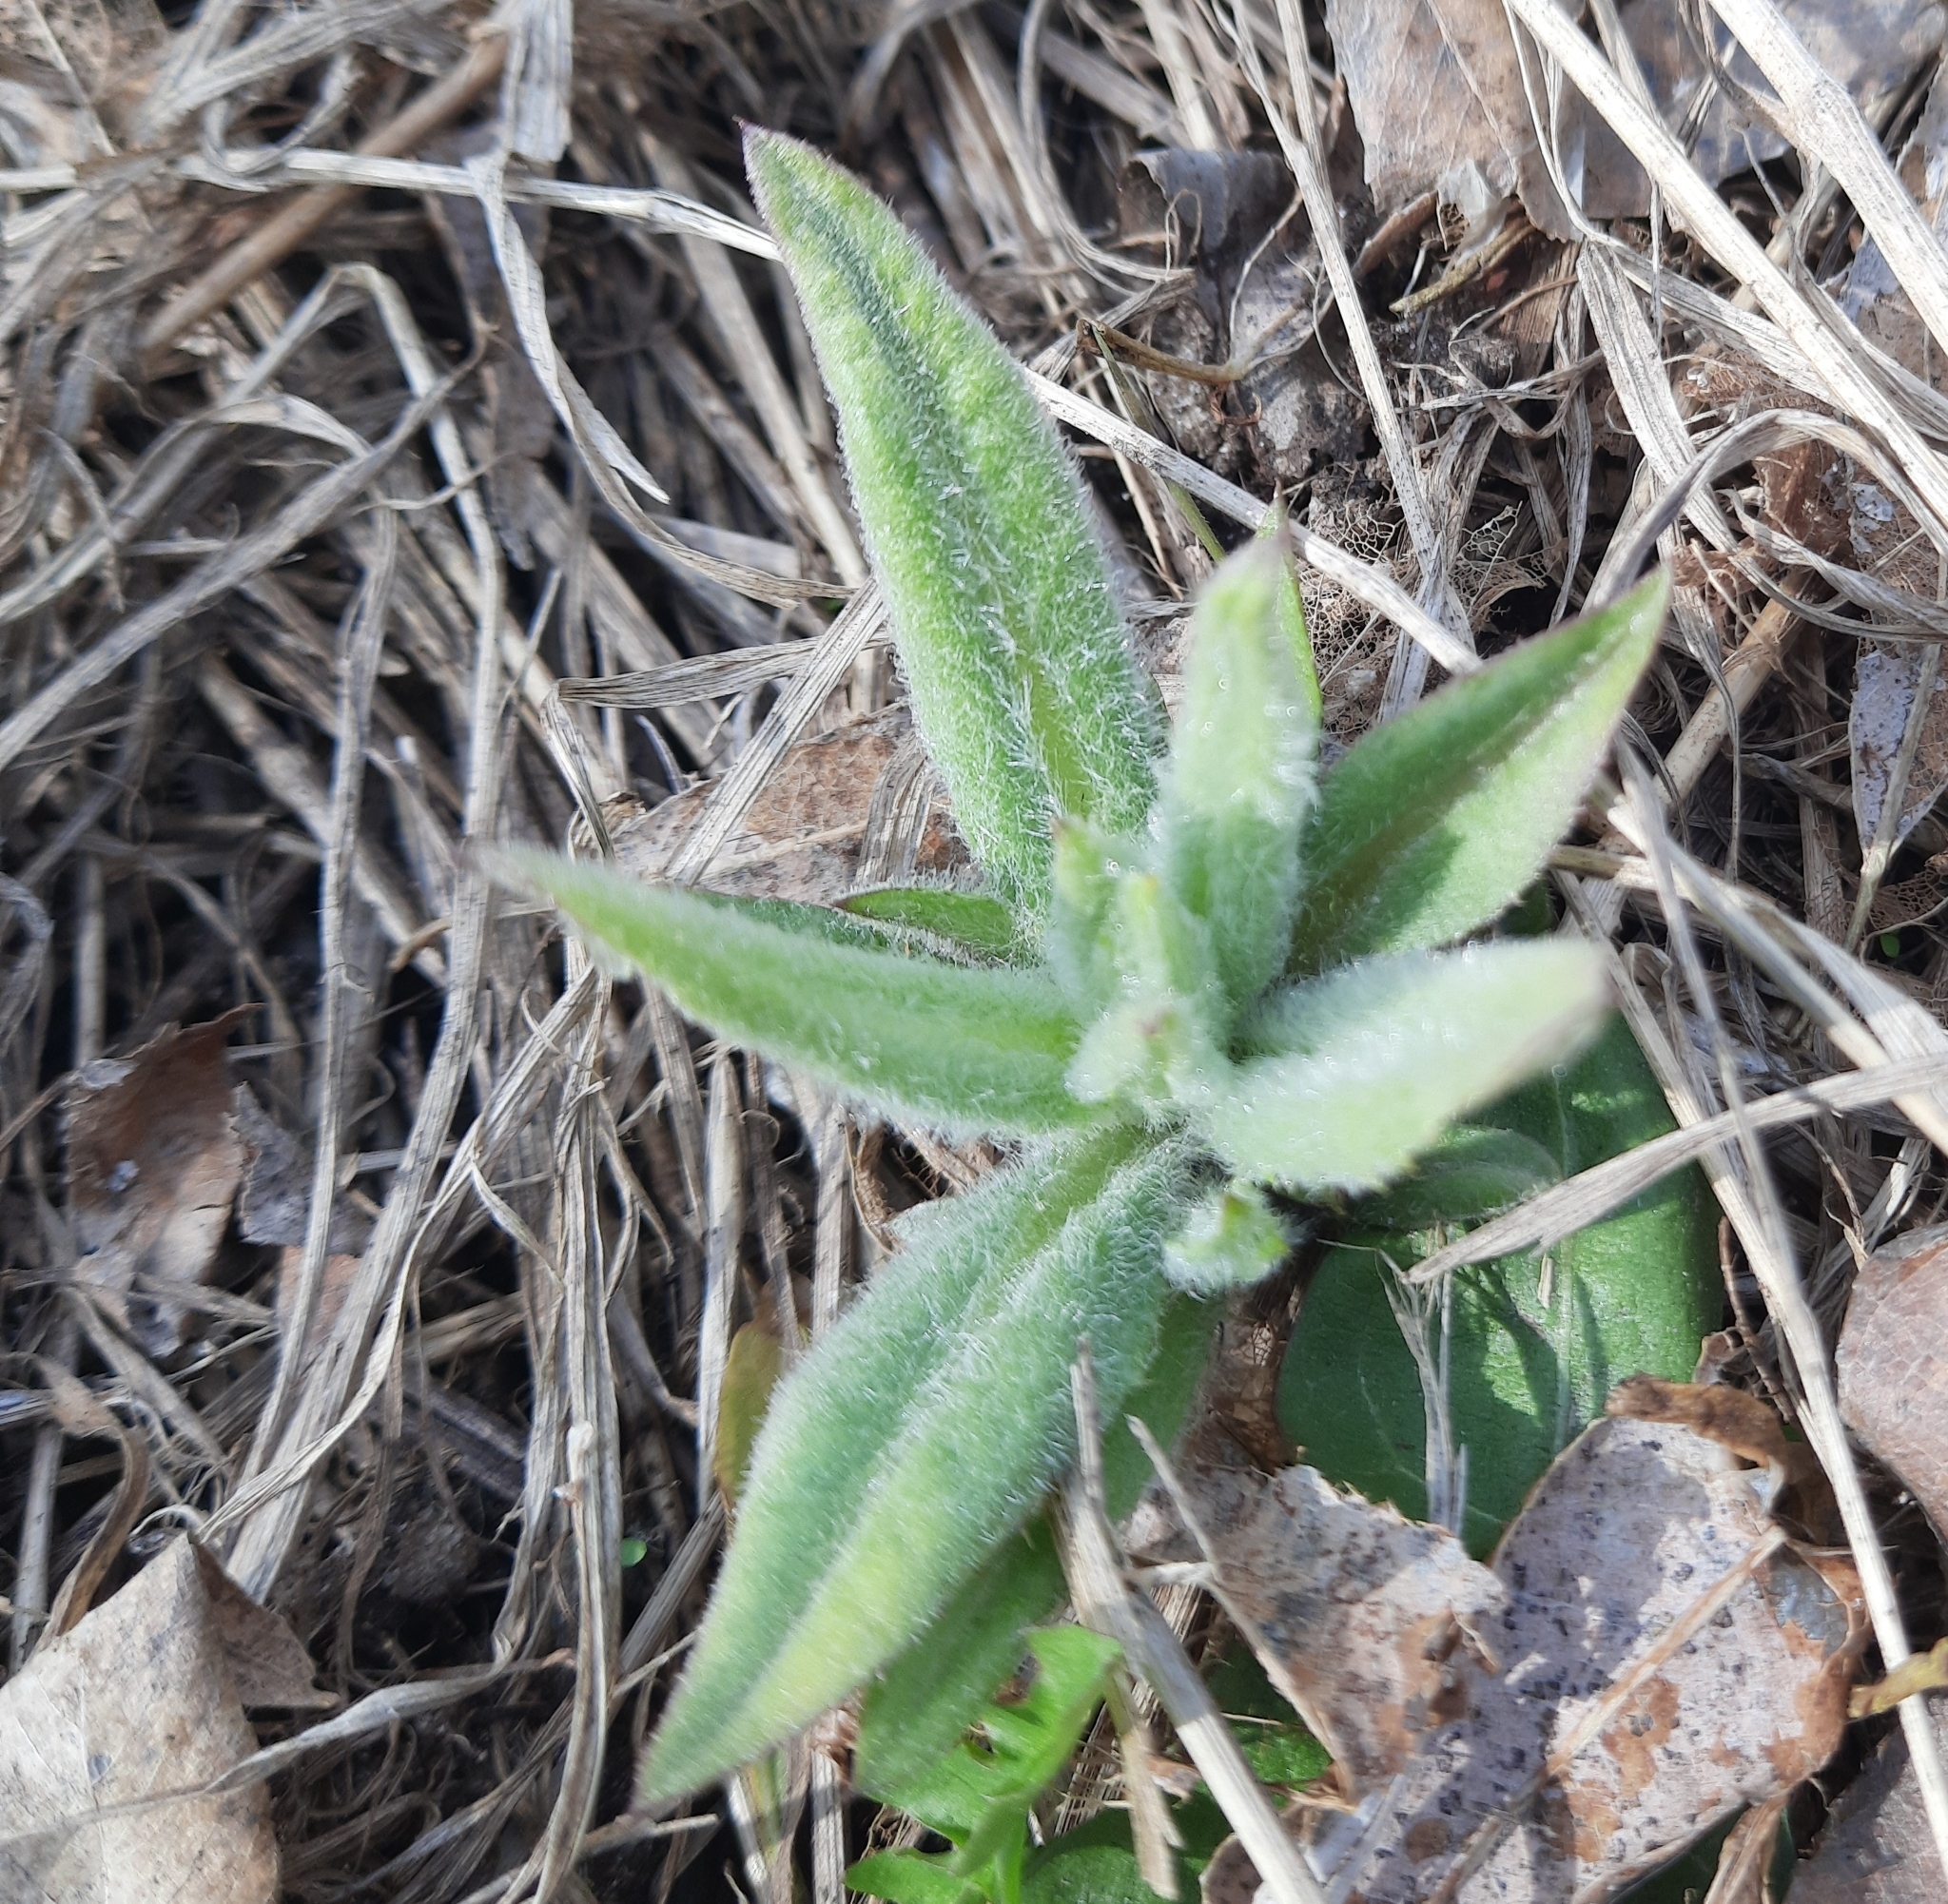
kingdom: Plantae
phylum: Tracheophyta
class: Magnoliopsida
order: Asterales
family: Asteraceae
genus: Cirsium
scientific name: Cirsium arvense
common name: Creeping thistle
